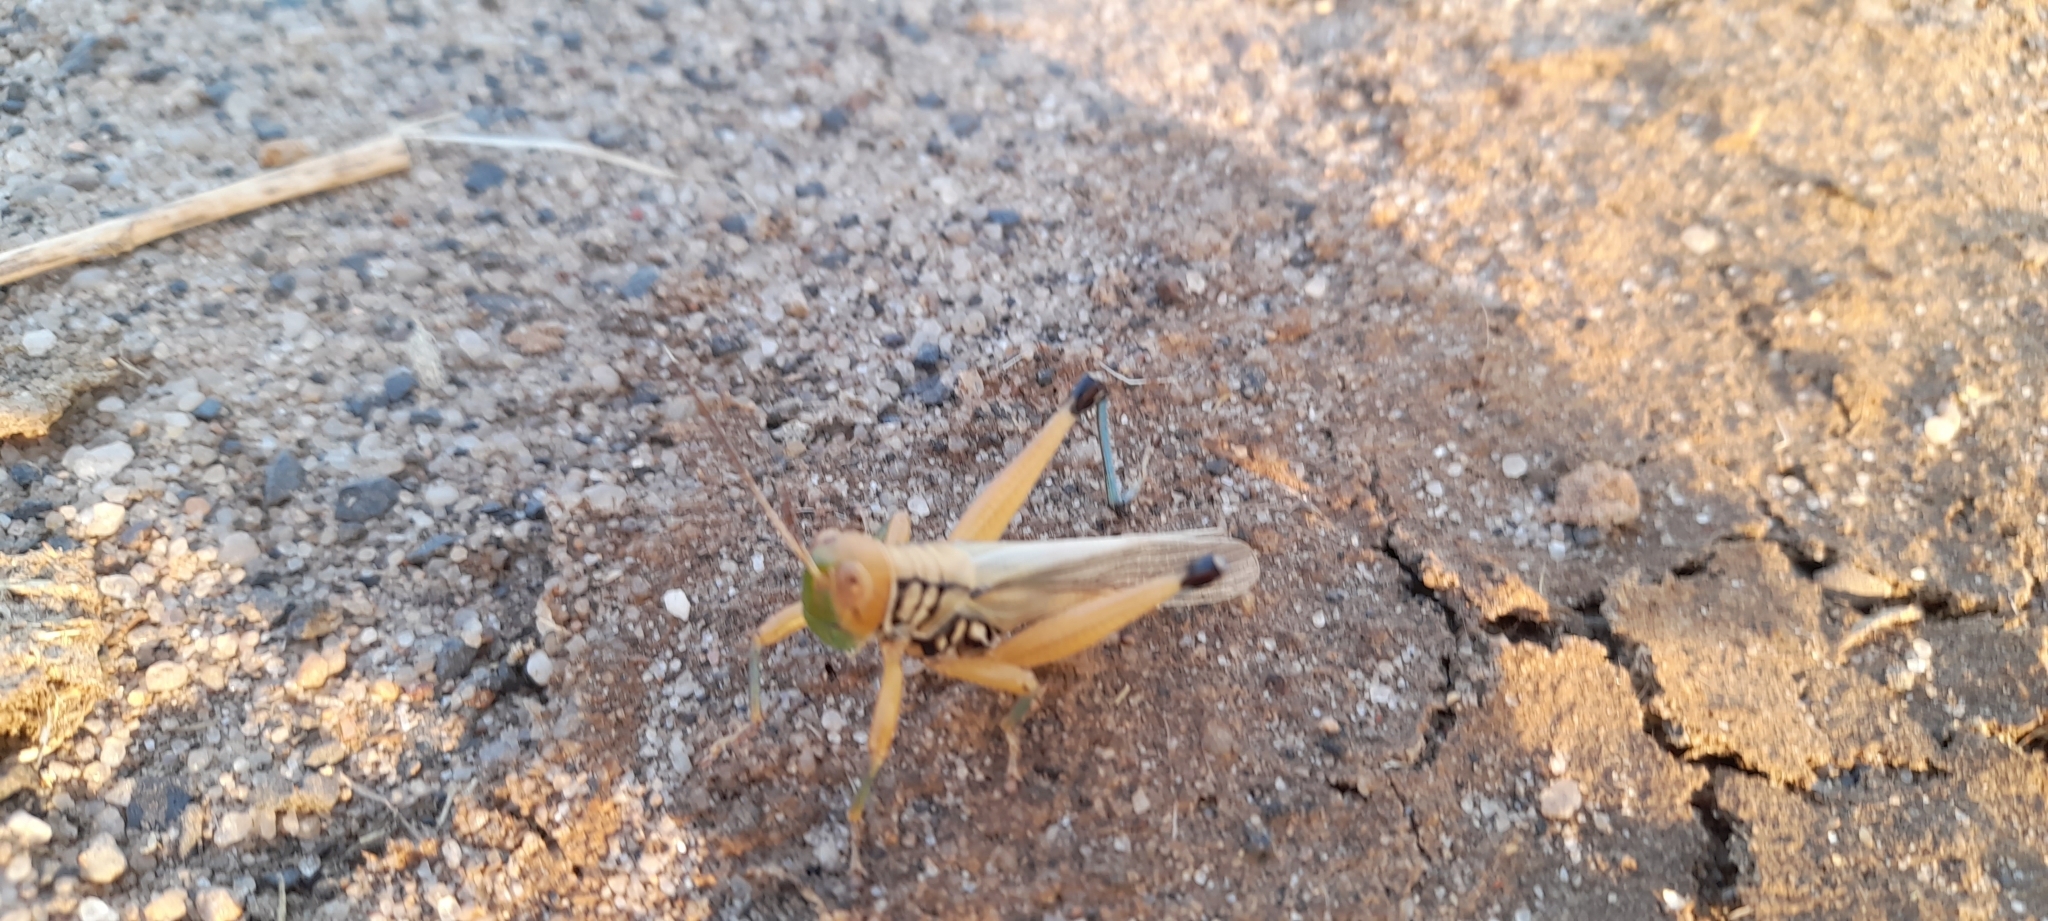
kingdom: Animalia
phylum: Arthropoda
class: Insecta
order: Orthoptera
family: Acrididae
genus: Hieroglyphus
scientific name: Hieroglyphus nigrorepletus
